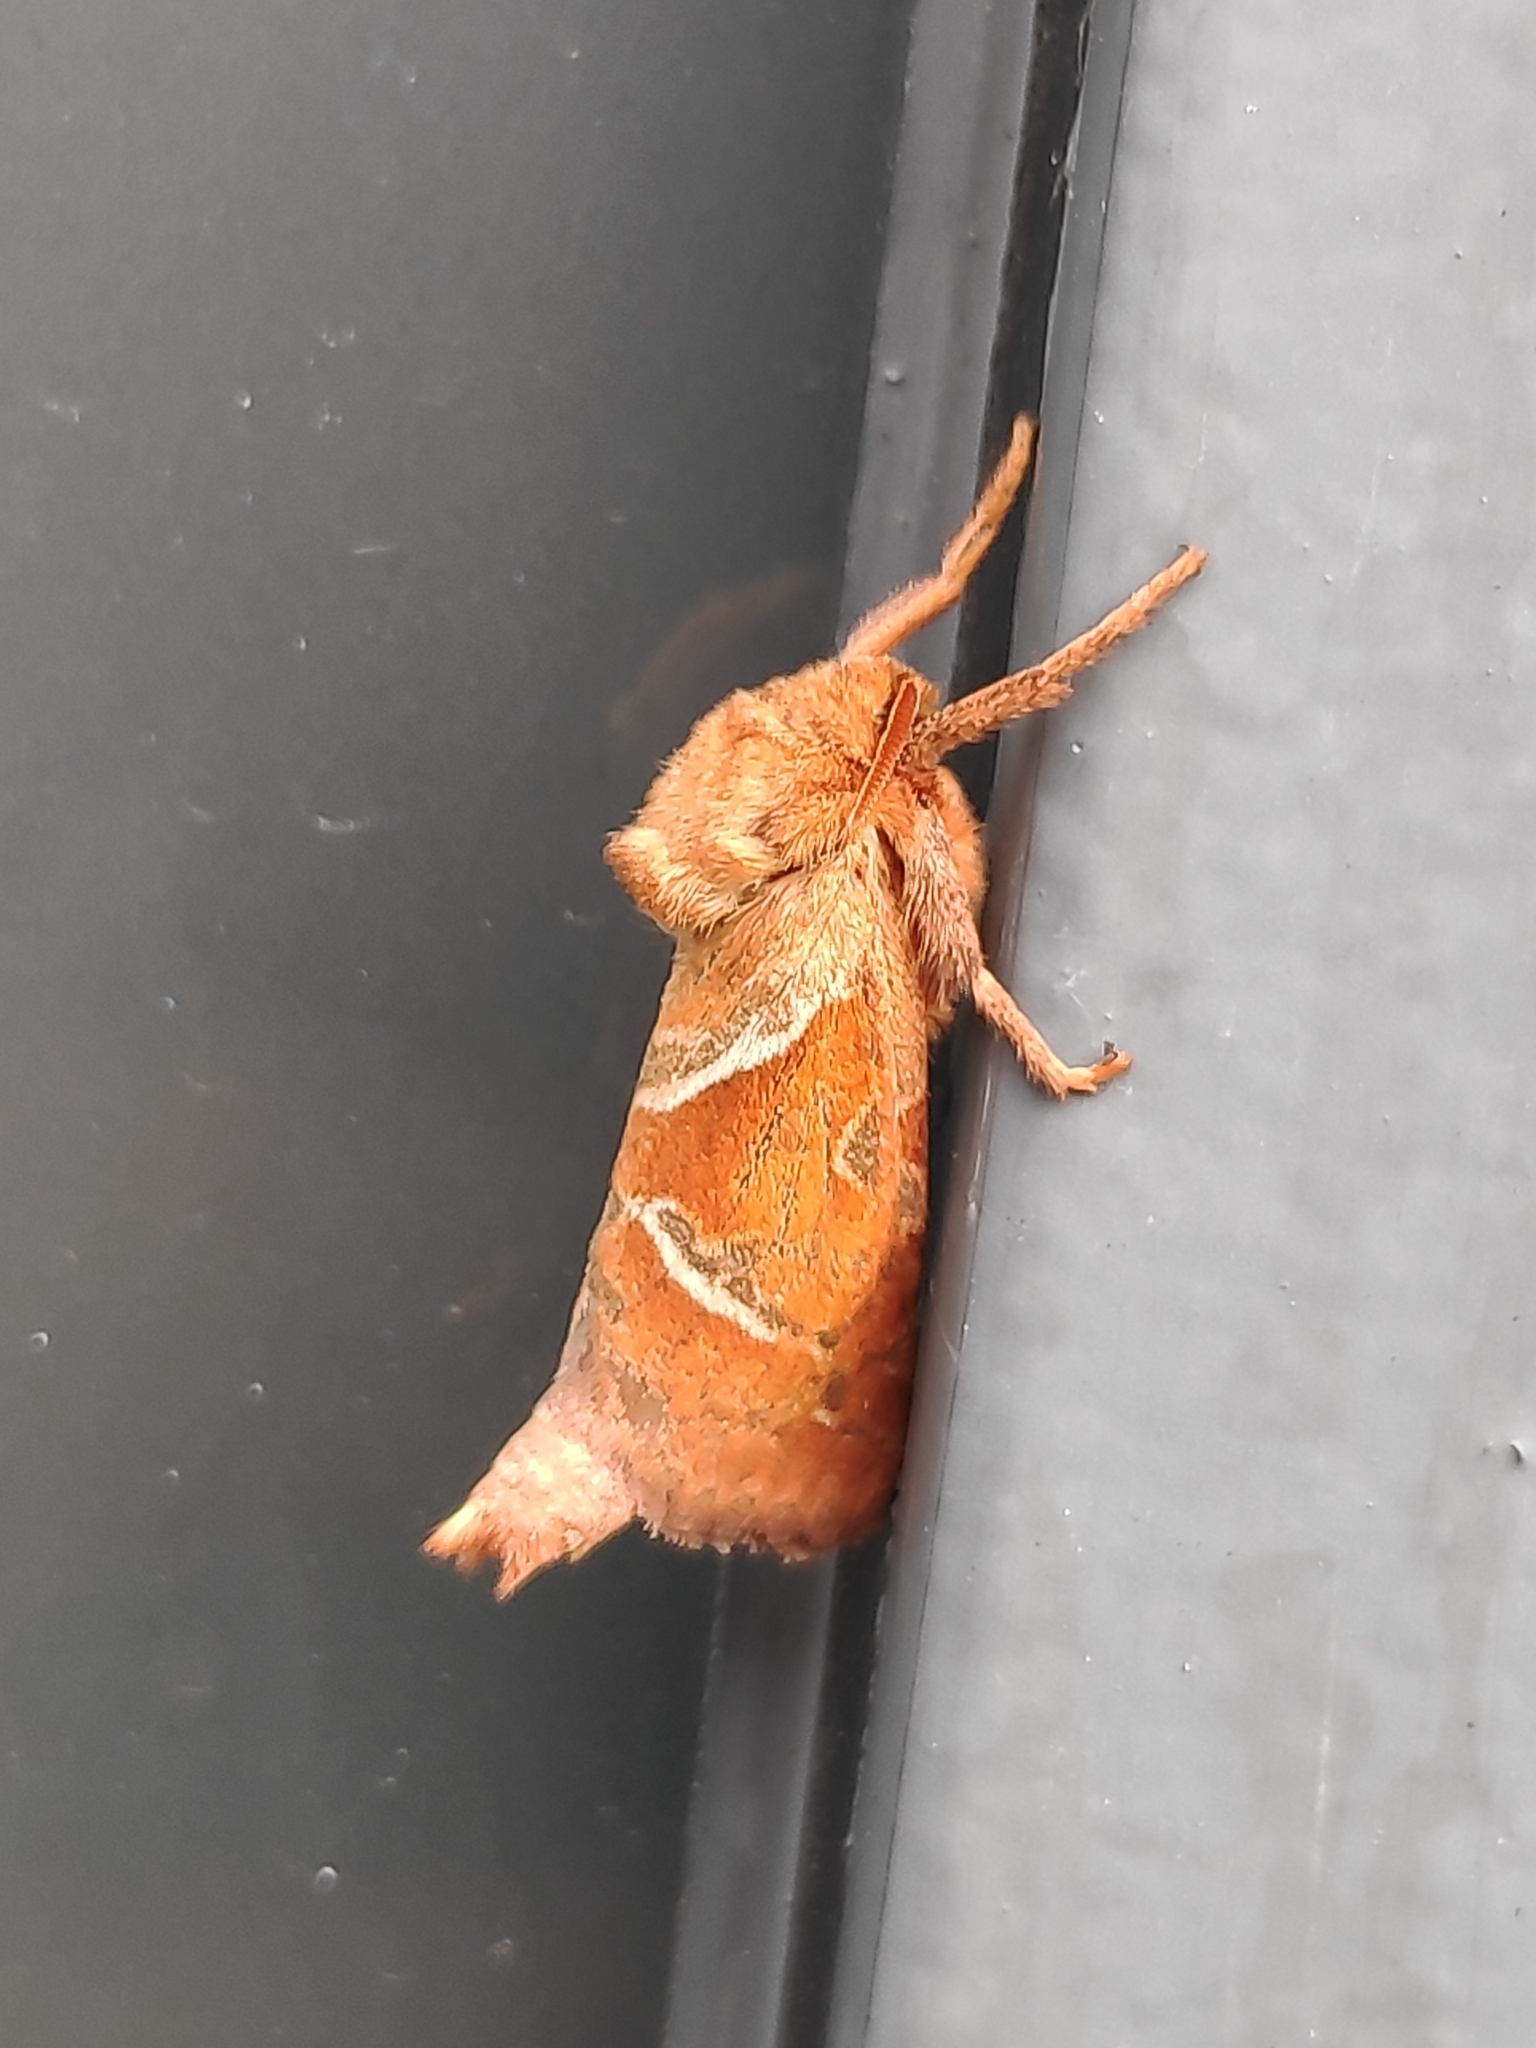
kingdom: Animalia
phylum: Arthropoda
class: Insecta
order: Lepidoptera
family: Hepialidae
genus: Triodia
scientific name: Triodia sylvina
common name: Orange swift
